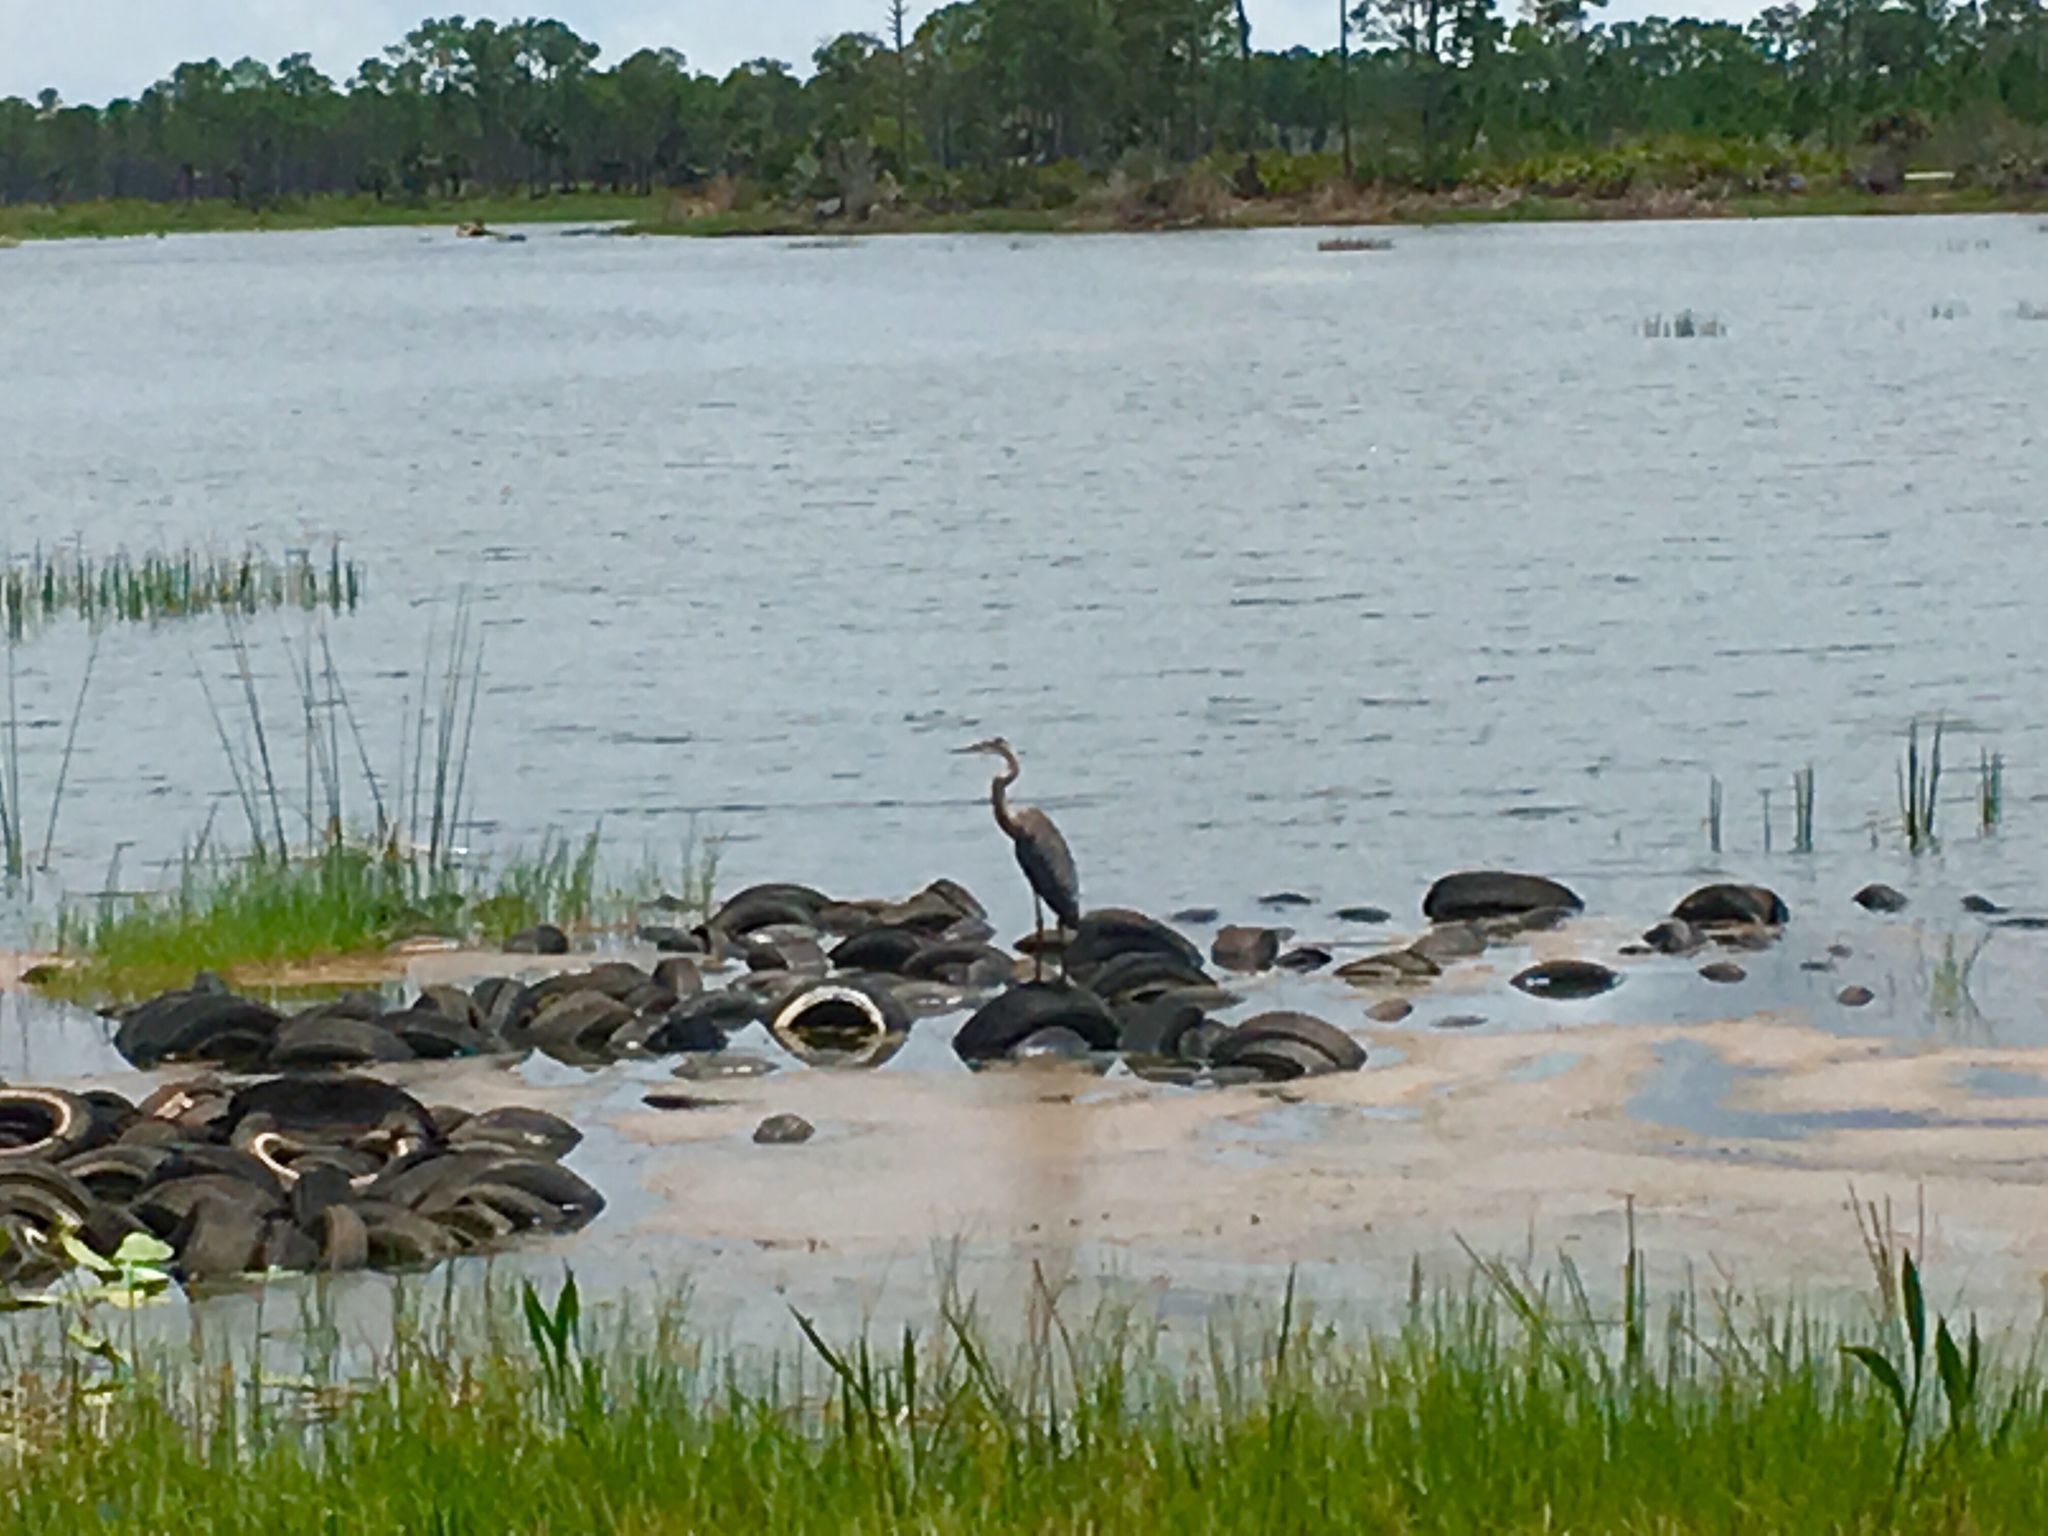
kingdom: Animalia
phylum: Chordata
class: Aves
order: Pelecaniformes
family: Ardeidae
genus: Ardea
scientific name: Ardea herodias
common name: Great blue heron
